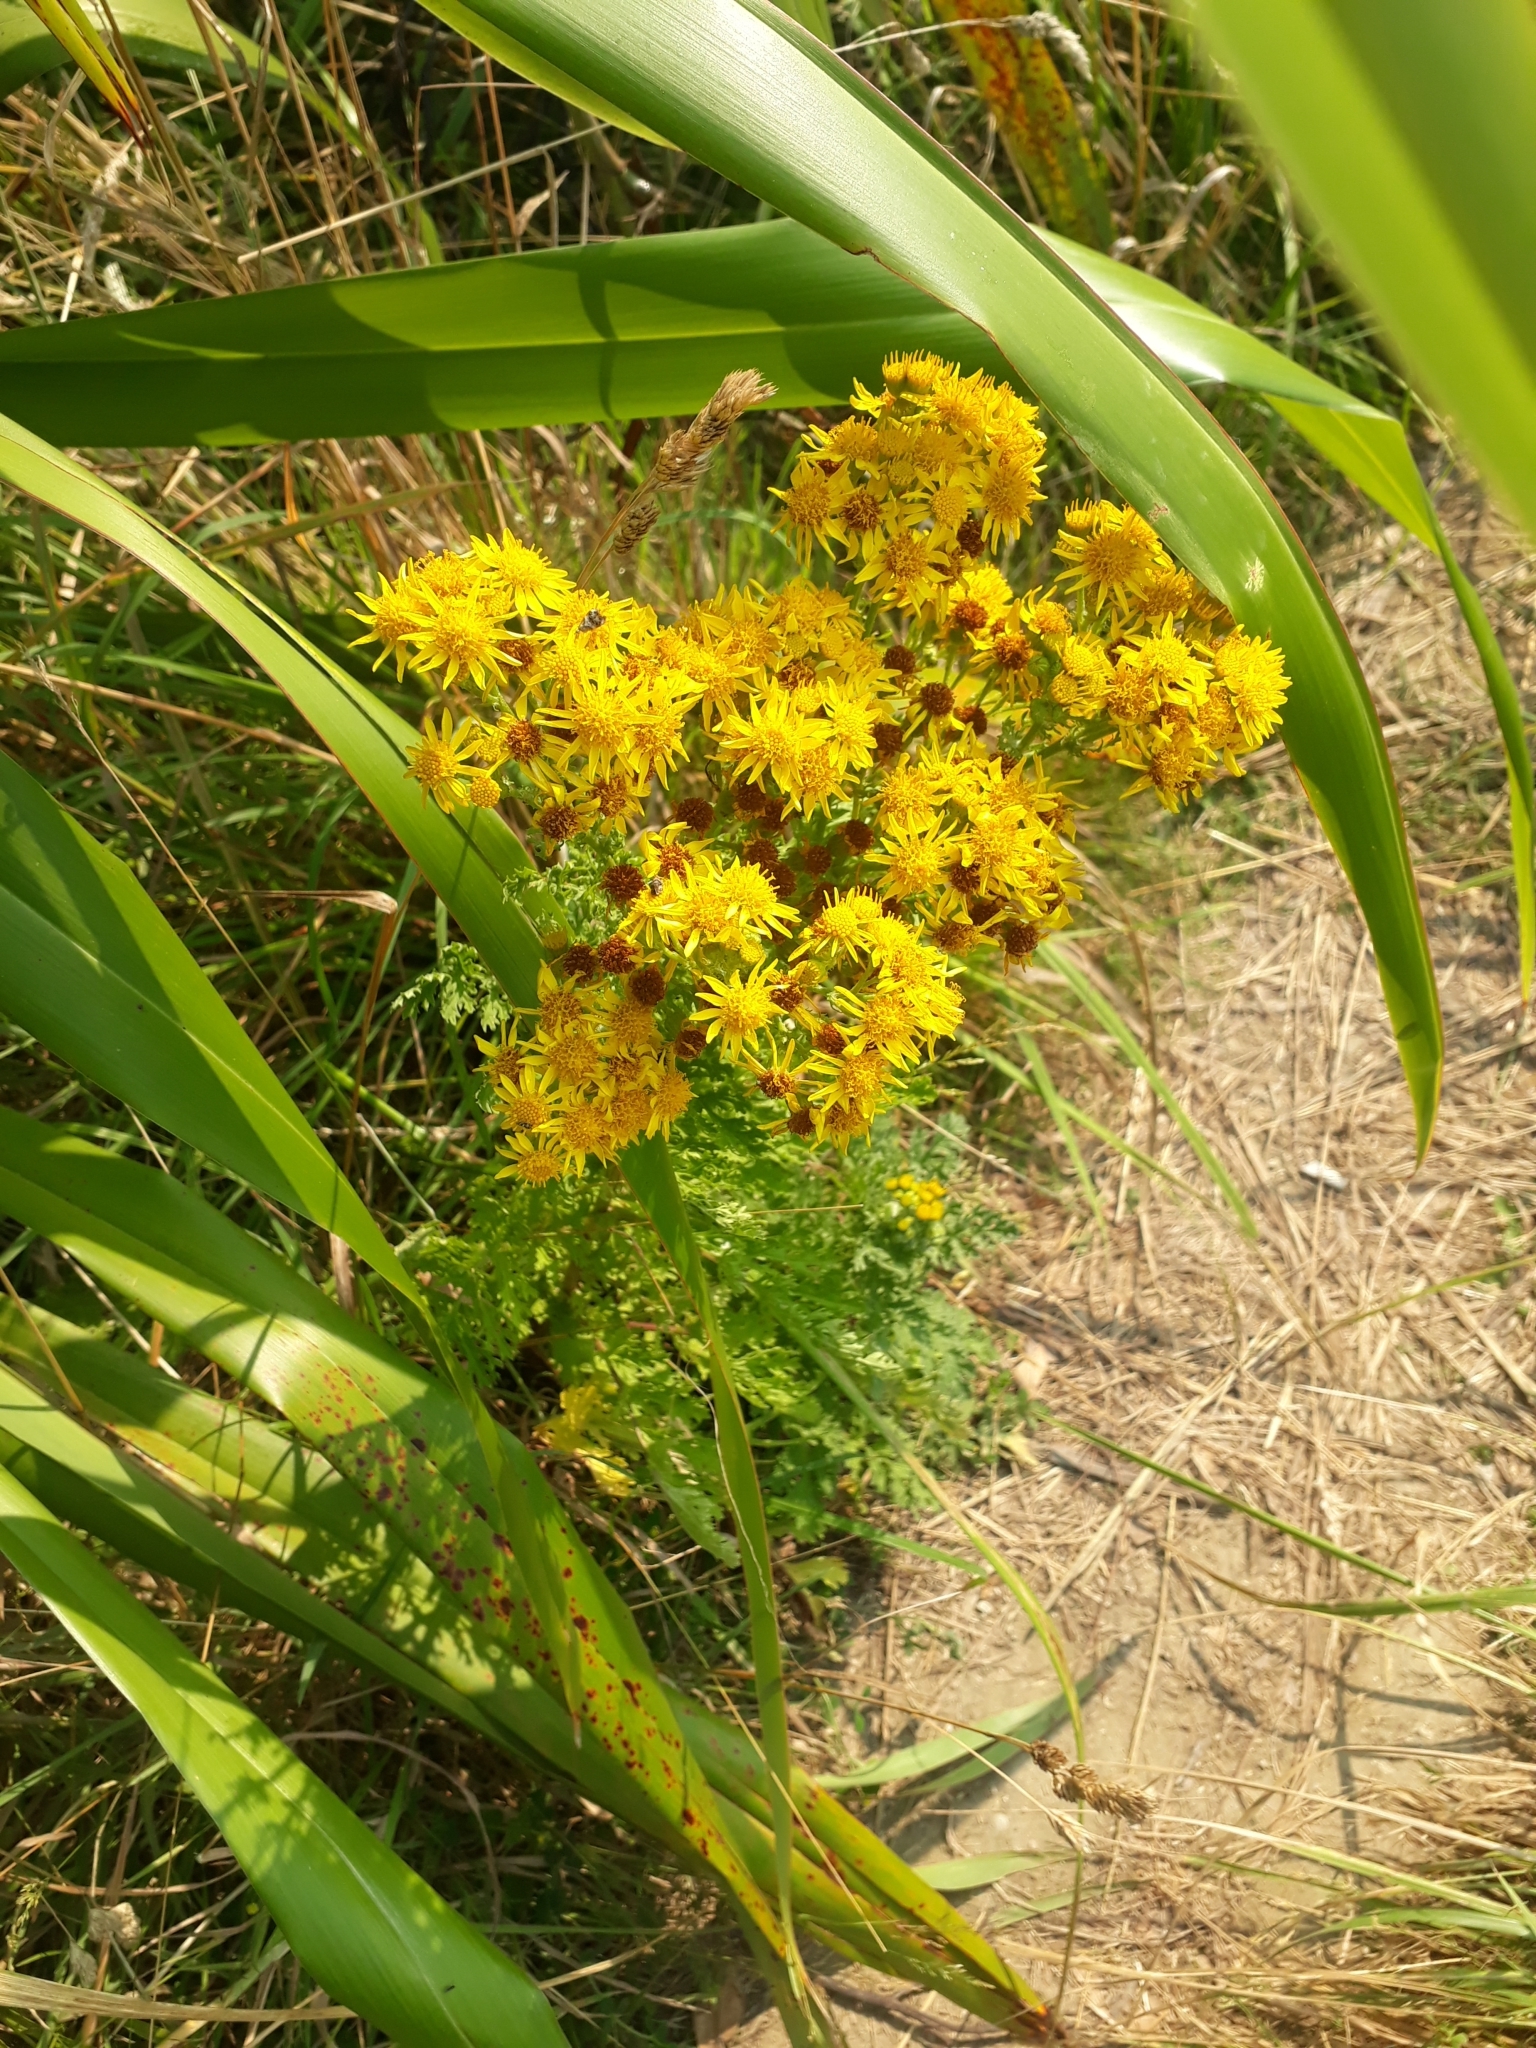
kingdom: Plantae
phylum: Tracheophyta
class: Magnoliopsida
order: Asterales
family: Asteraceae
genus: Jacobaea
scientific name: Jacobaea vulgaris
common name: Stinking willie
